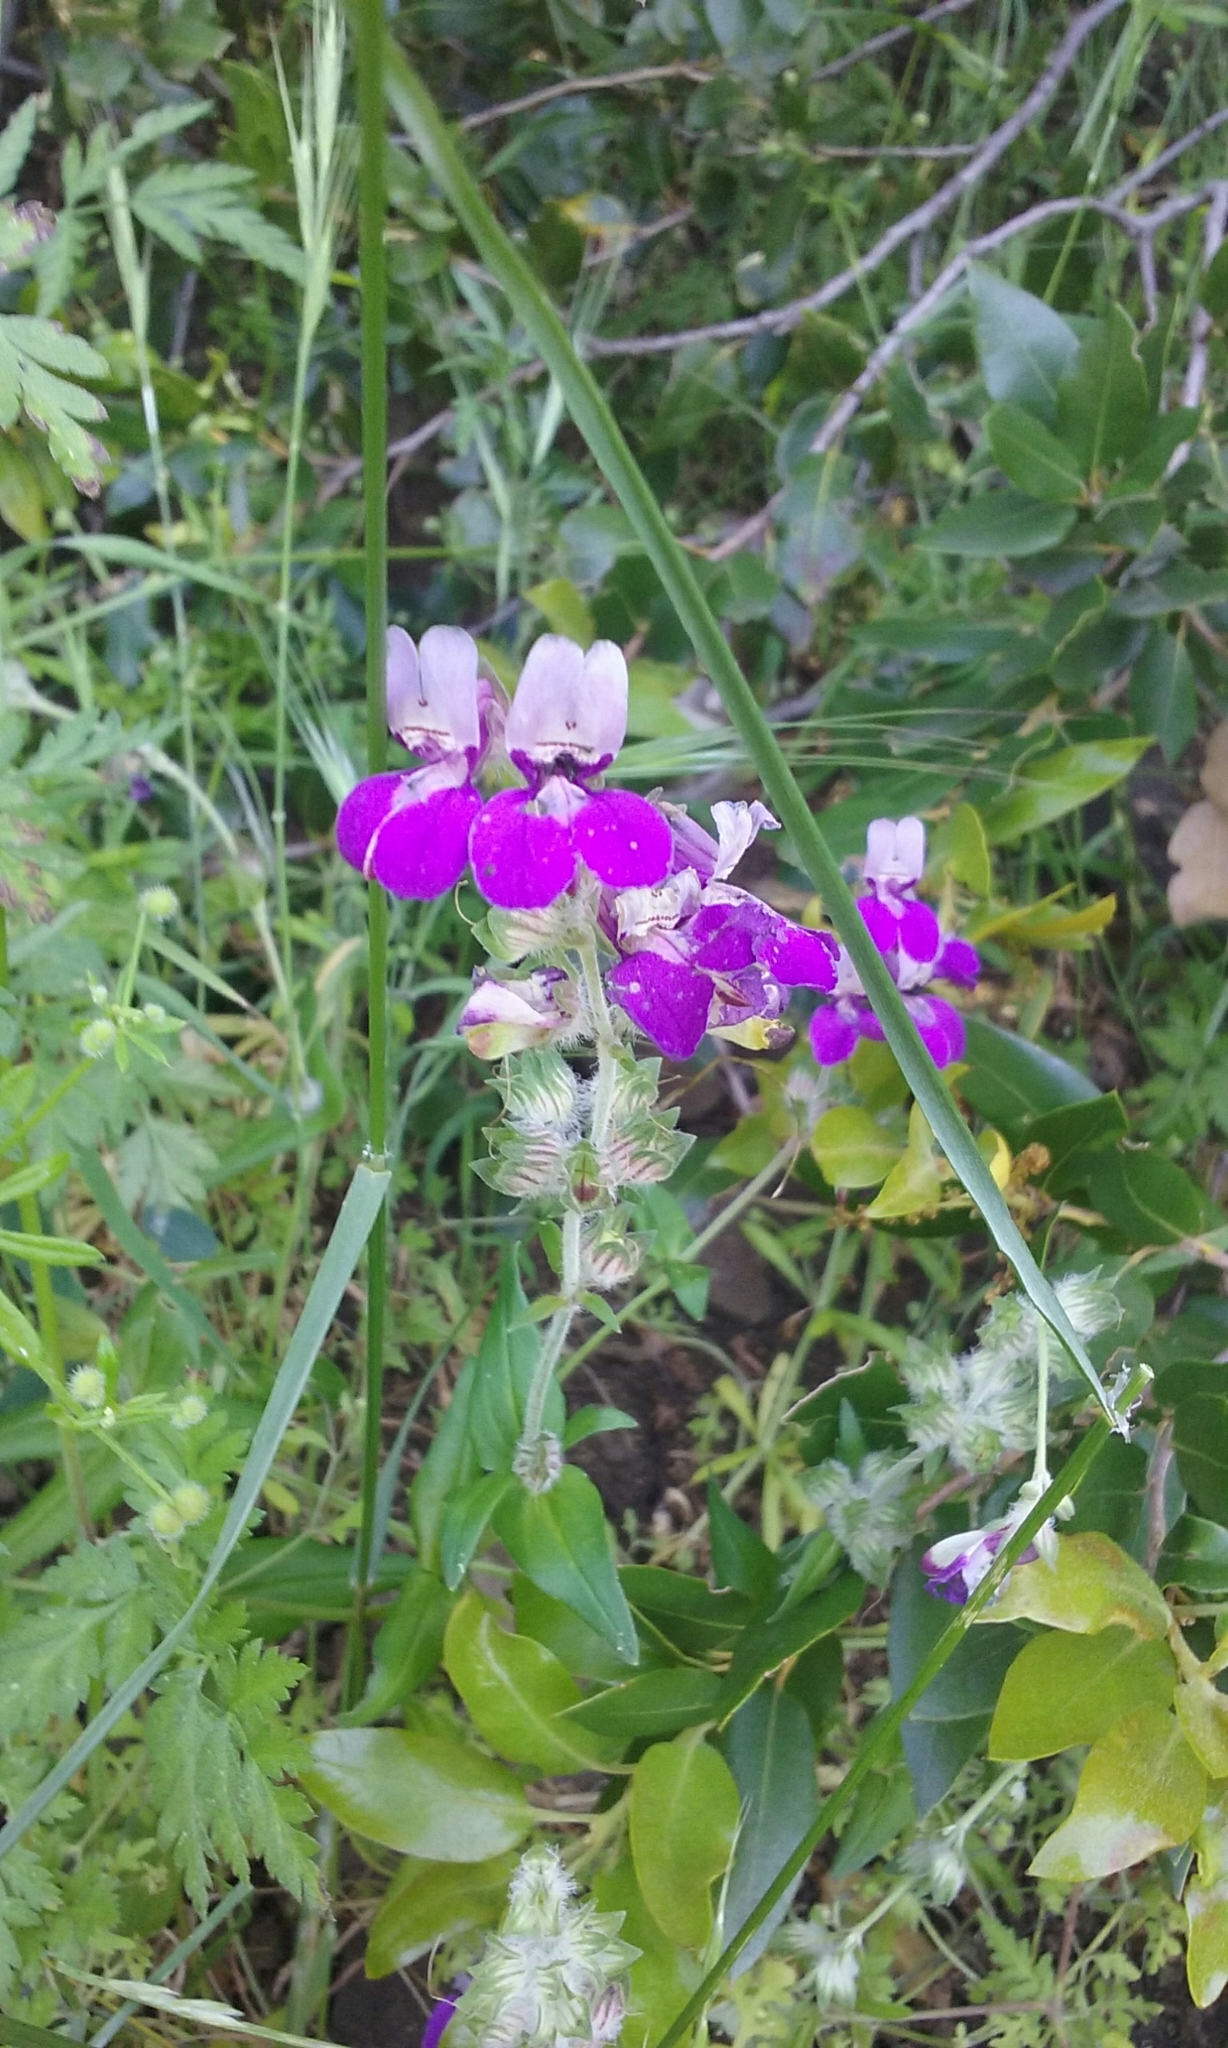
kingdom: Plantae
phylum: Tracheophyta
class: Magnoliopsida
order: Lamiales
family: Plantaginaceae
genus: Collinsia
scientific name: Collinsia heterophylla
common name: Chinese-houses
